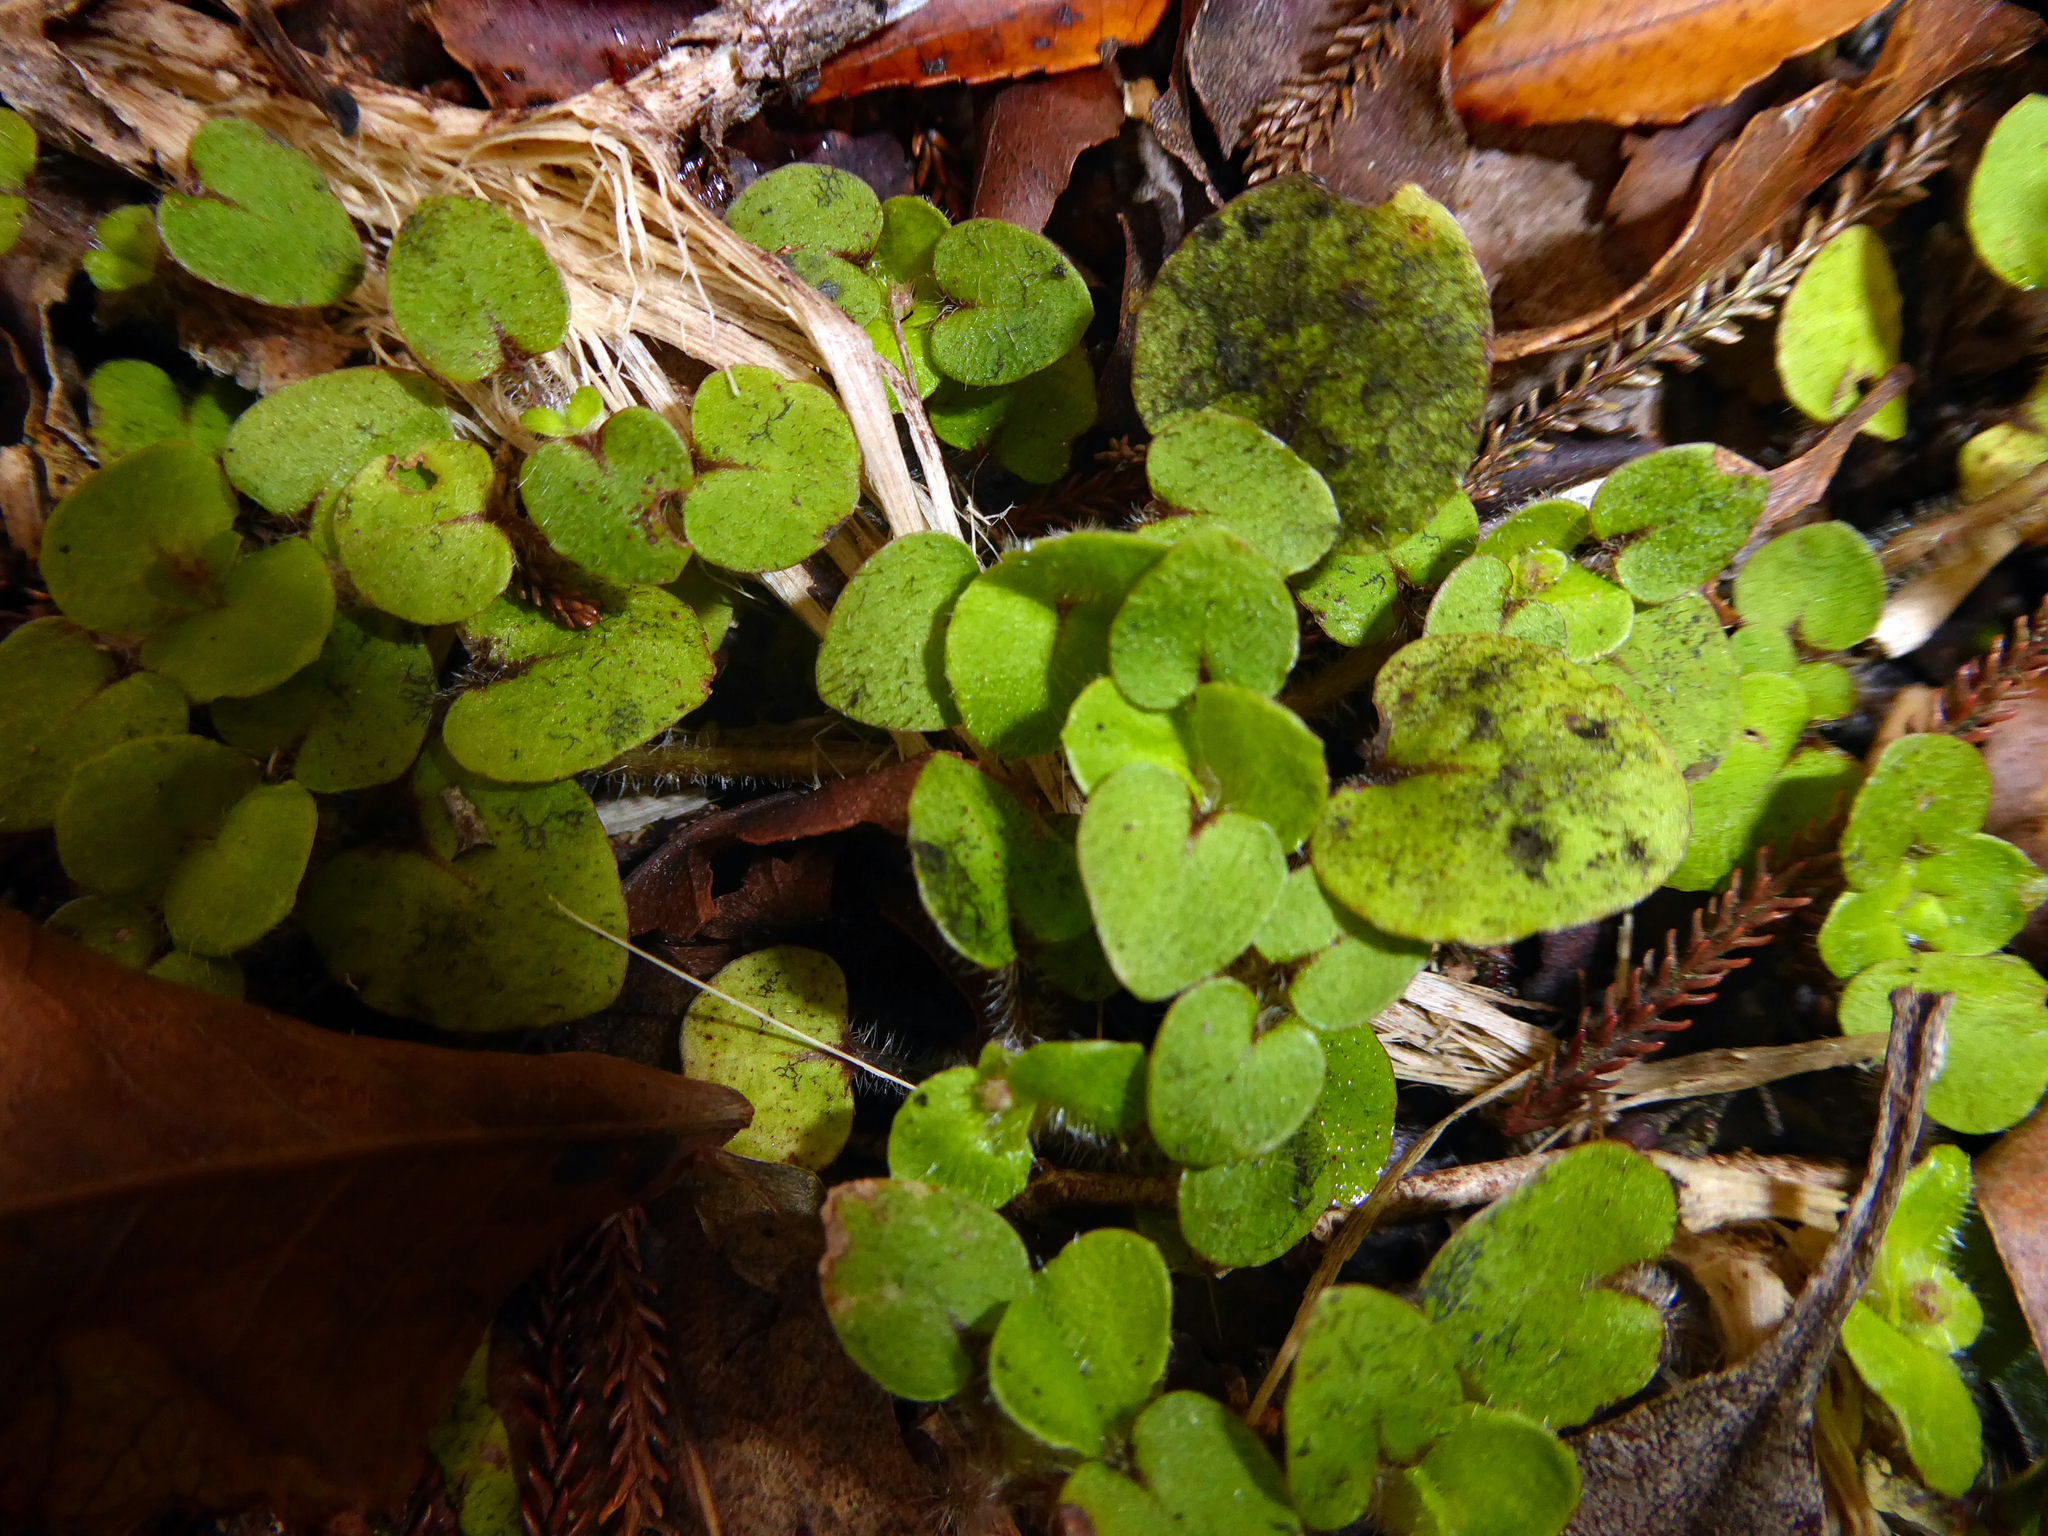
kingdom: Plantae
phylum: Tracheophyta
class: Magnoliopsida
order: Gentianales
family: Rubiaceae
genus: Nertera
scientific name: Nertera villosa
